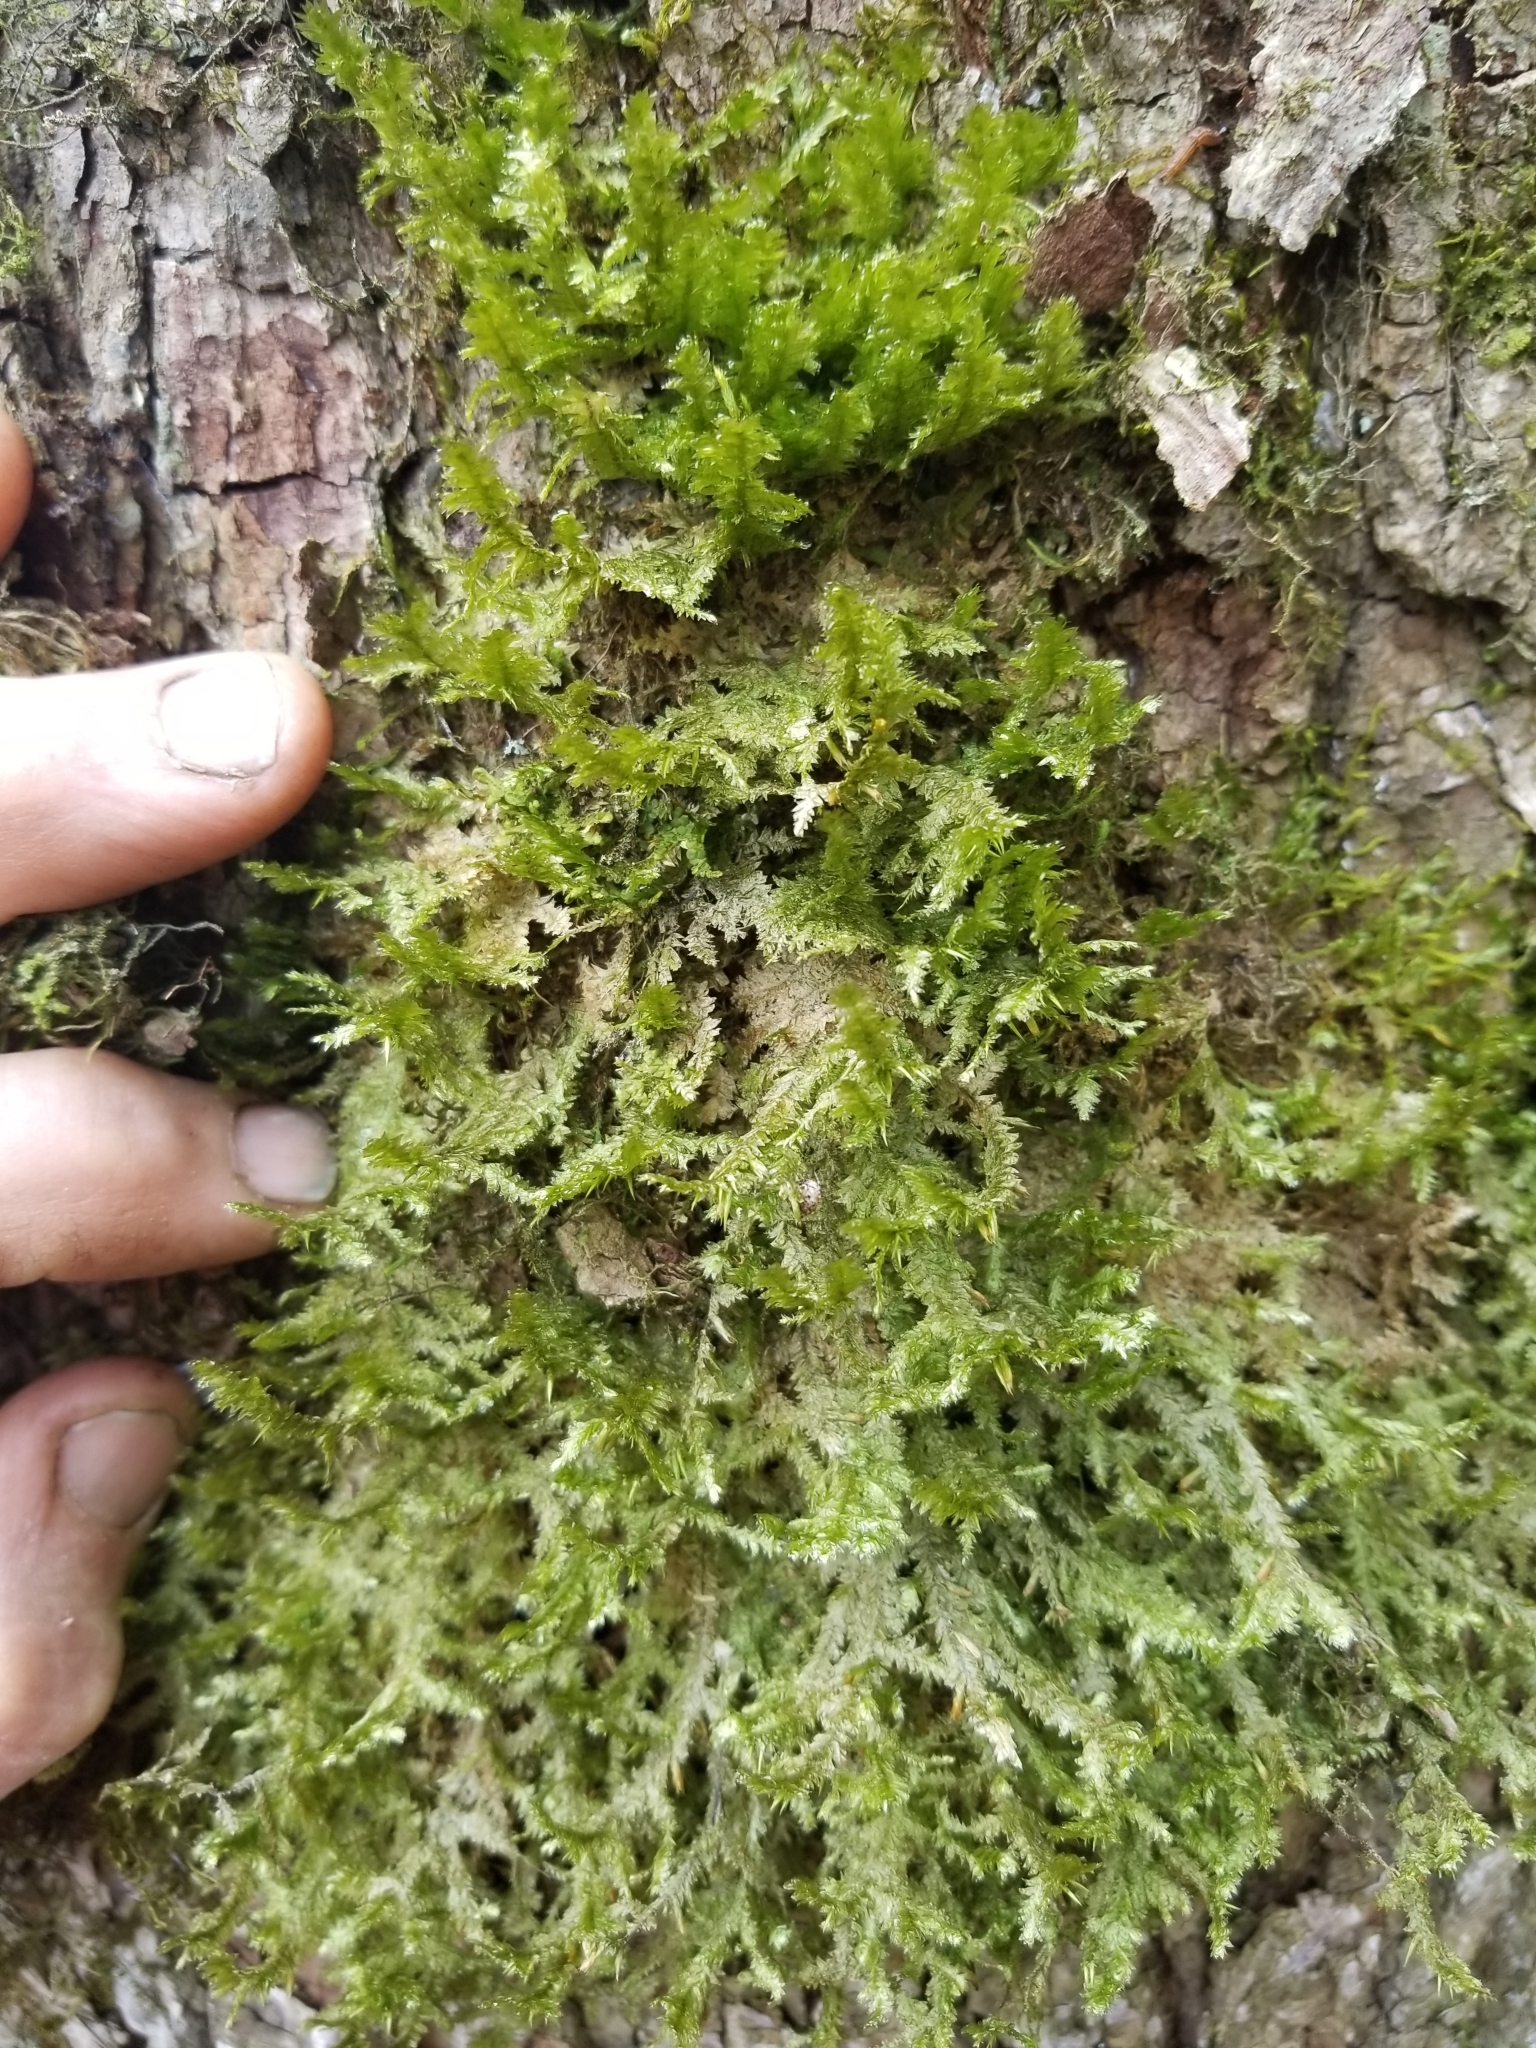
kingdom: Plantae
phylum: Bryophyta
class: Bryopsida
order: Hypnales
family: Neckeraceae
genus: Neckera
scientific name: Neckera pennata
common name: Feathery neckera
